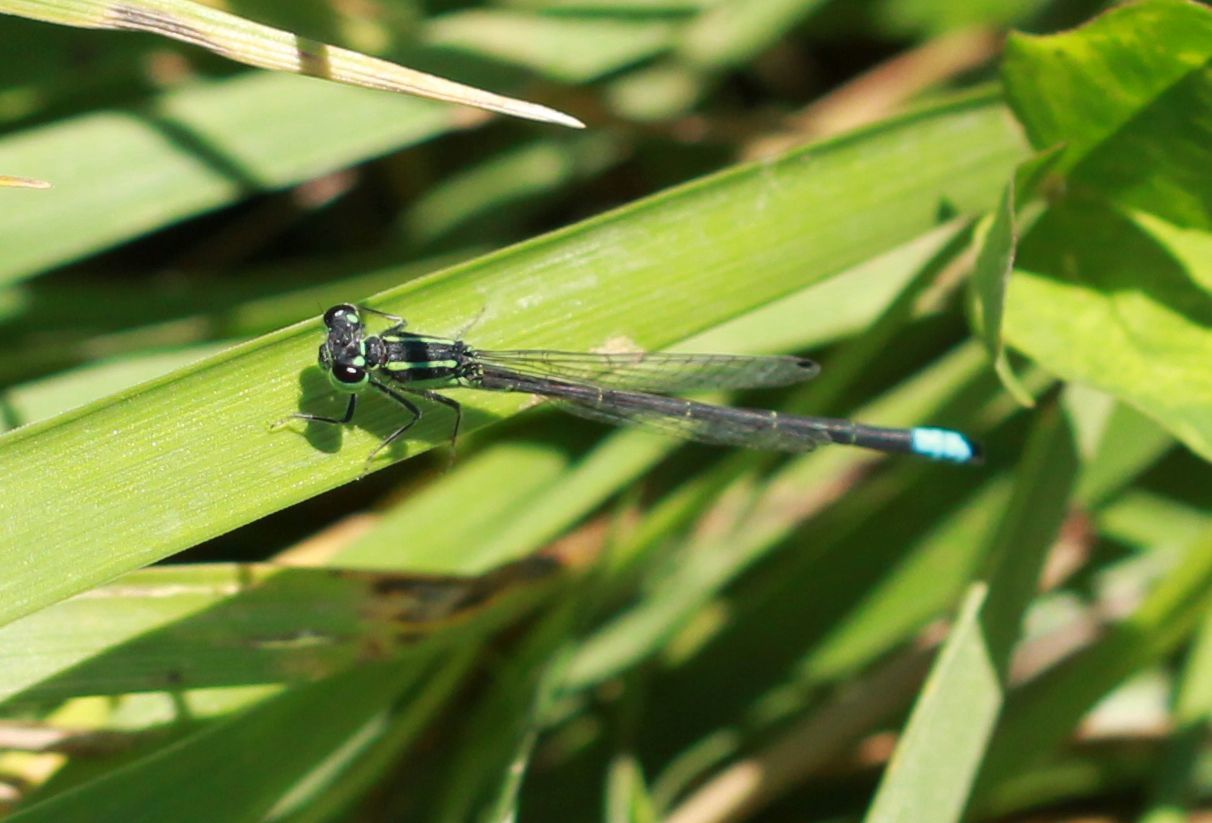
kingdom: Animalia
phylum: Arthropoda
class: Insecta
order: Odonata
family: Coenagrionidae
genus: Ischnura
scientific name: Ischnura verticalis
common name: Eastern forktail
